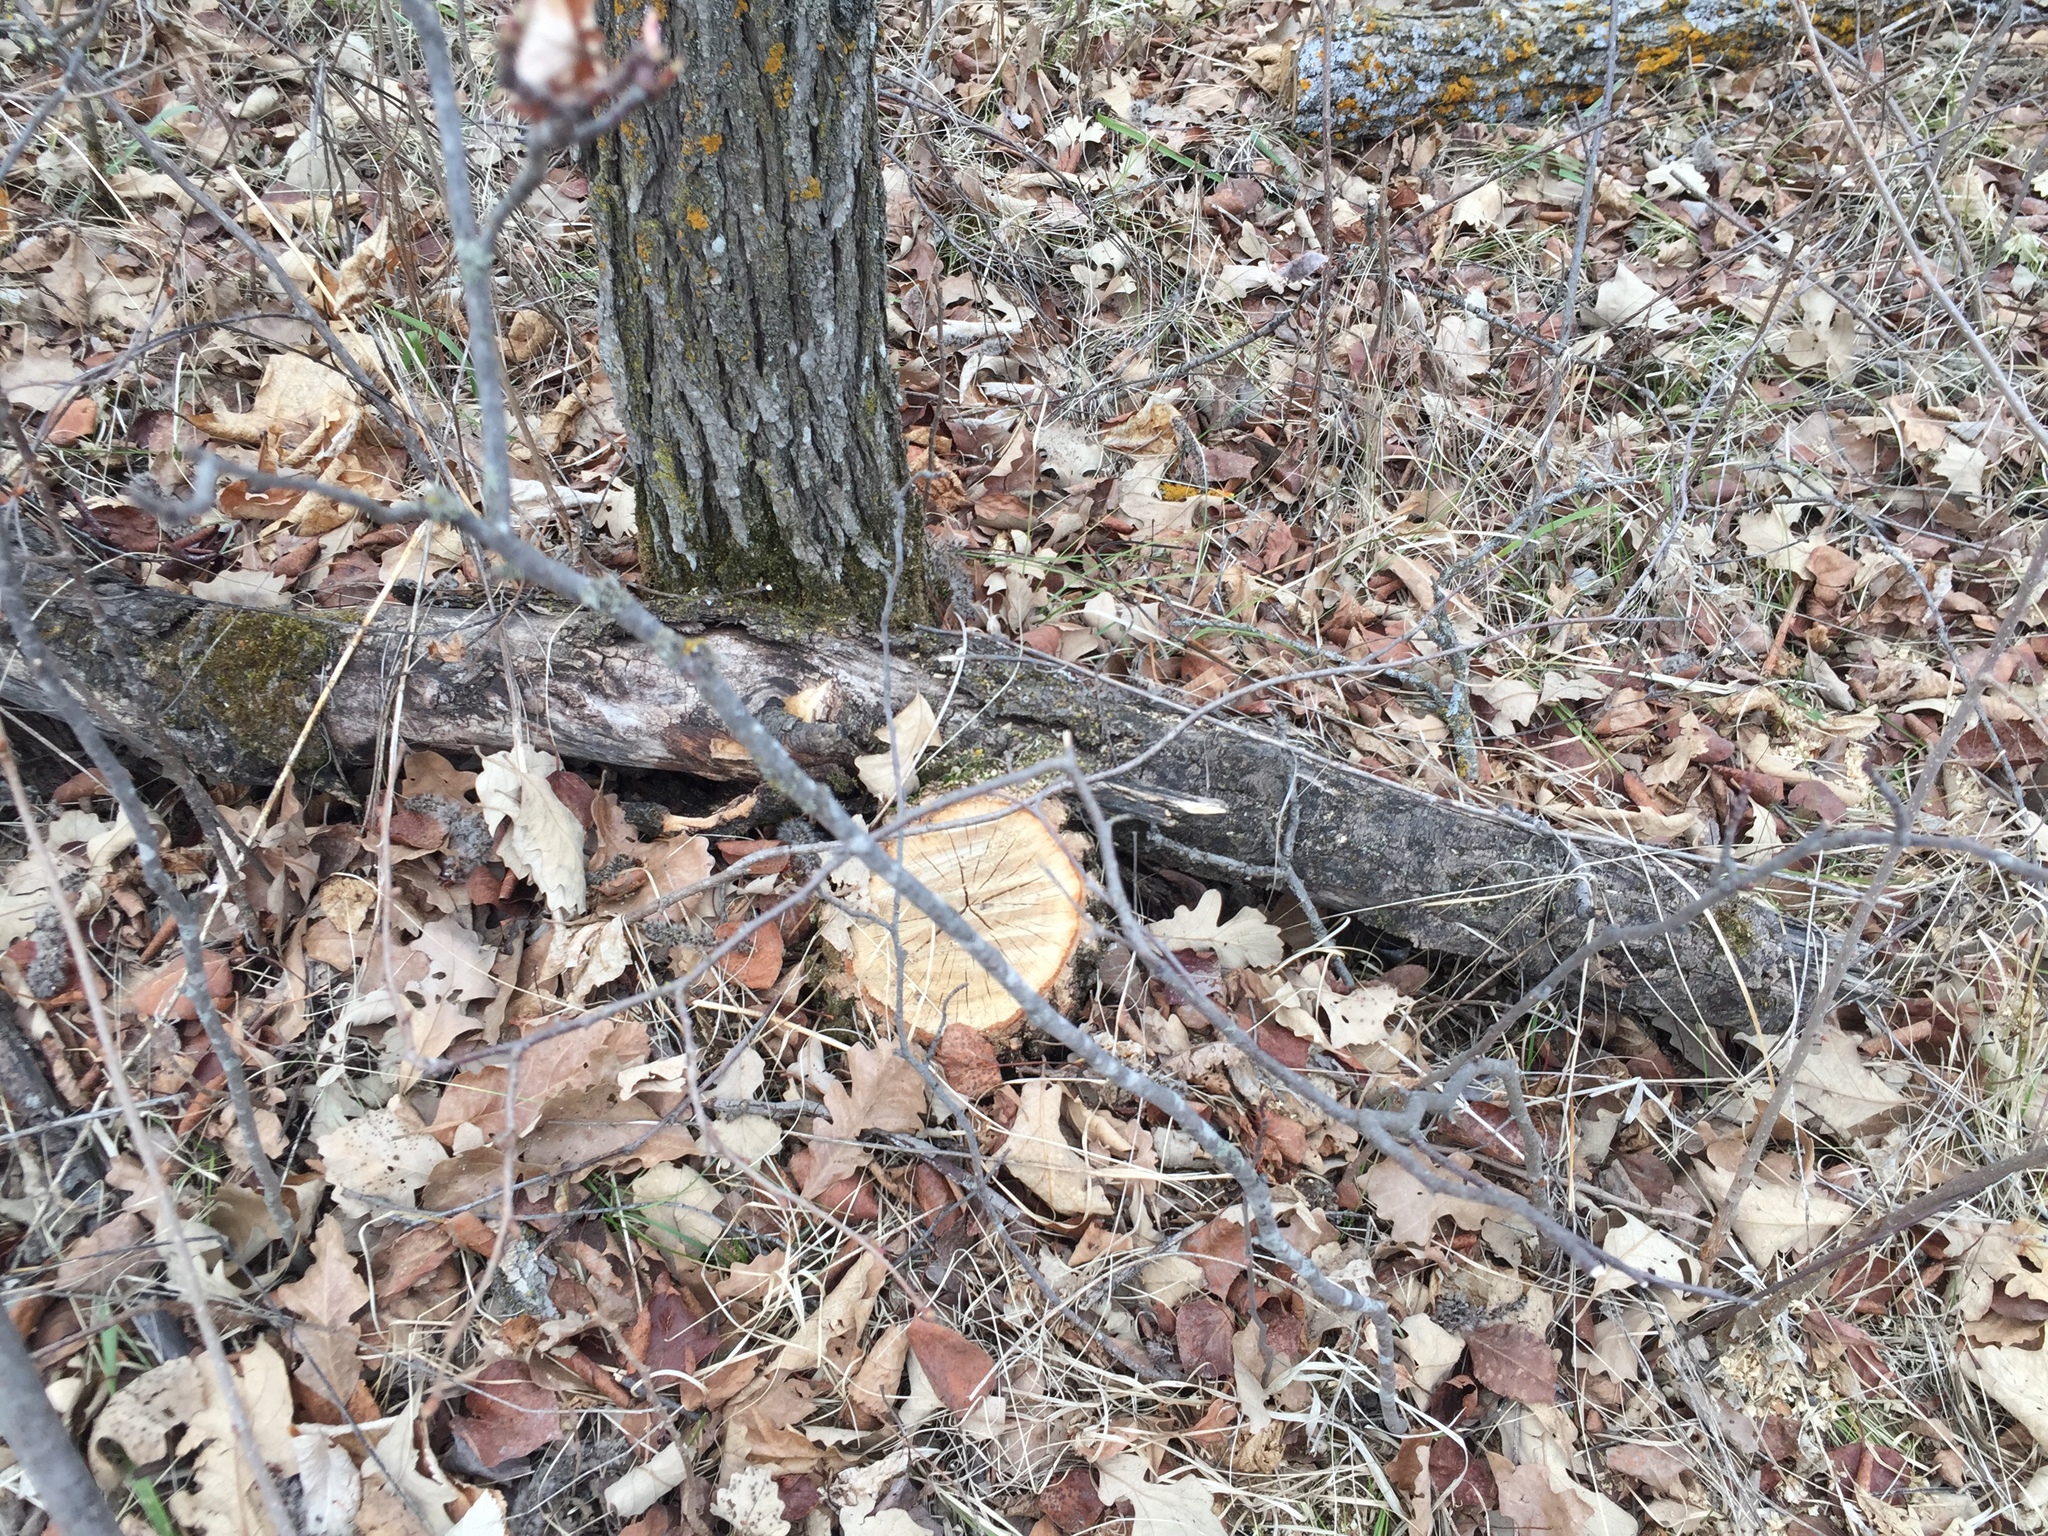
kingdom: Plantae
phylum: Tracheophyta
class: Magnoliopsida
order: Fagales
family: Fagaceae
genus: Quercus
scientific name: Quercus macrocarpa
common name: Bur oak
